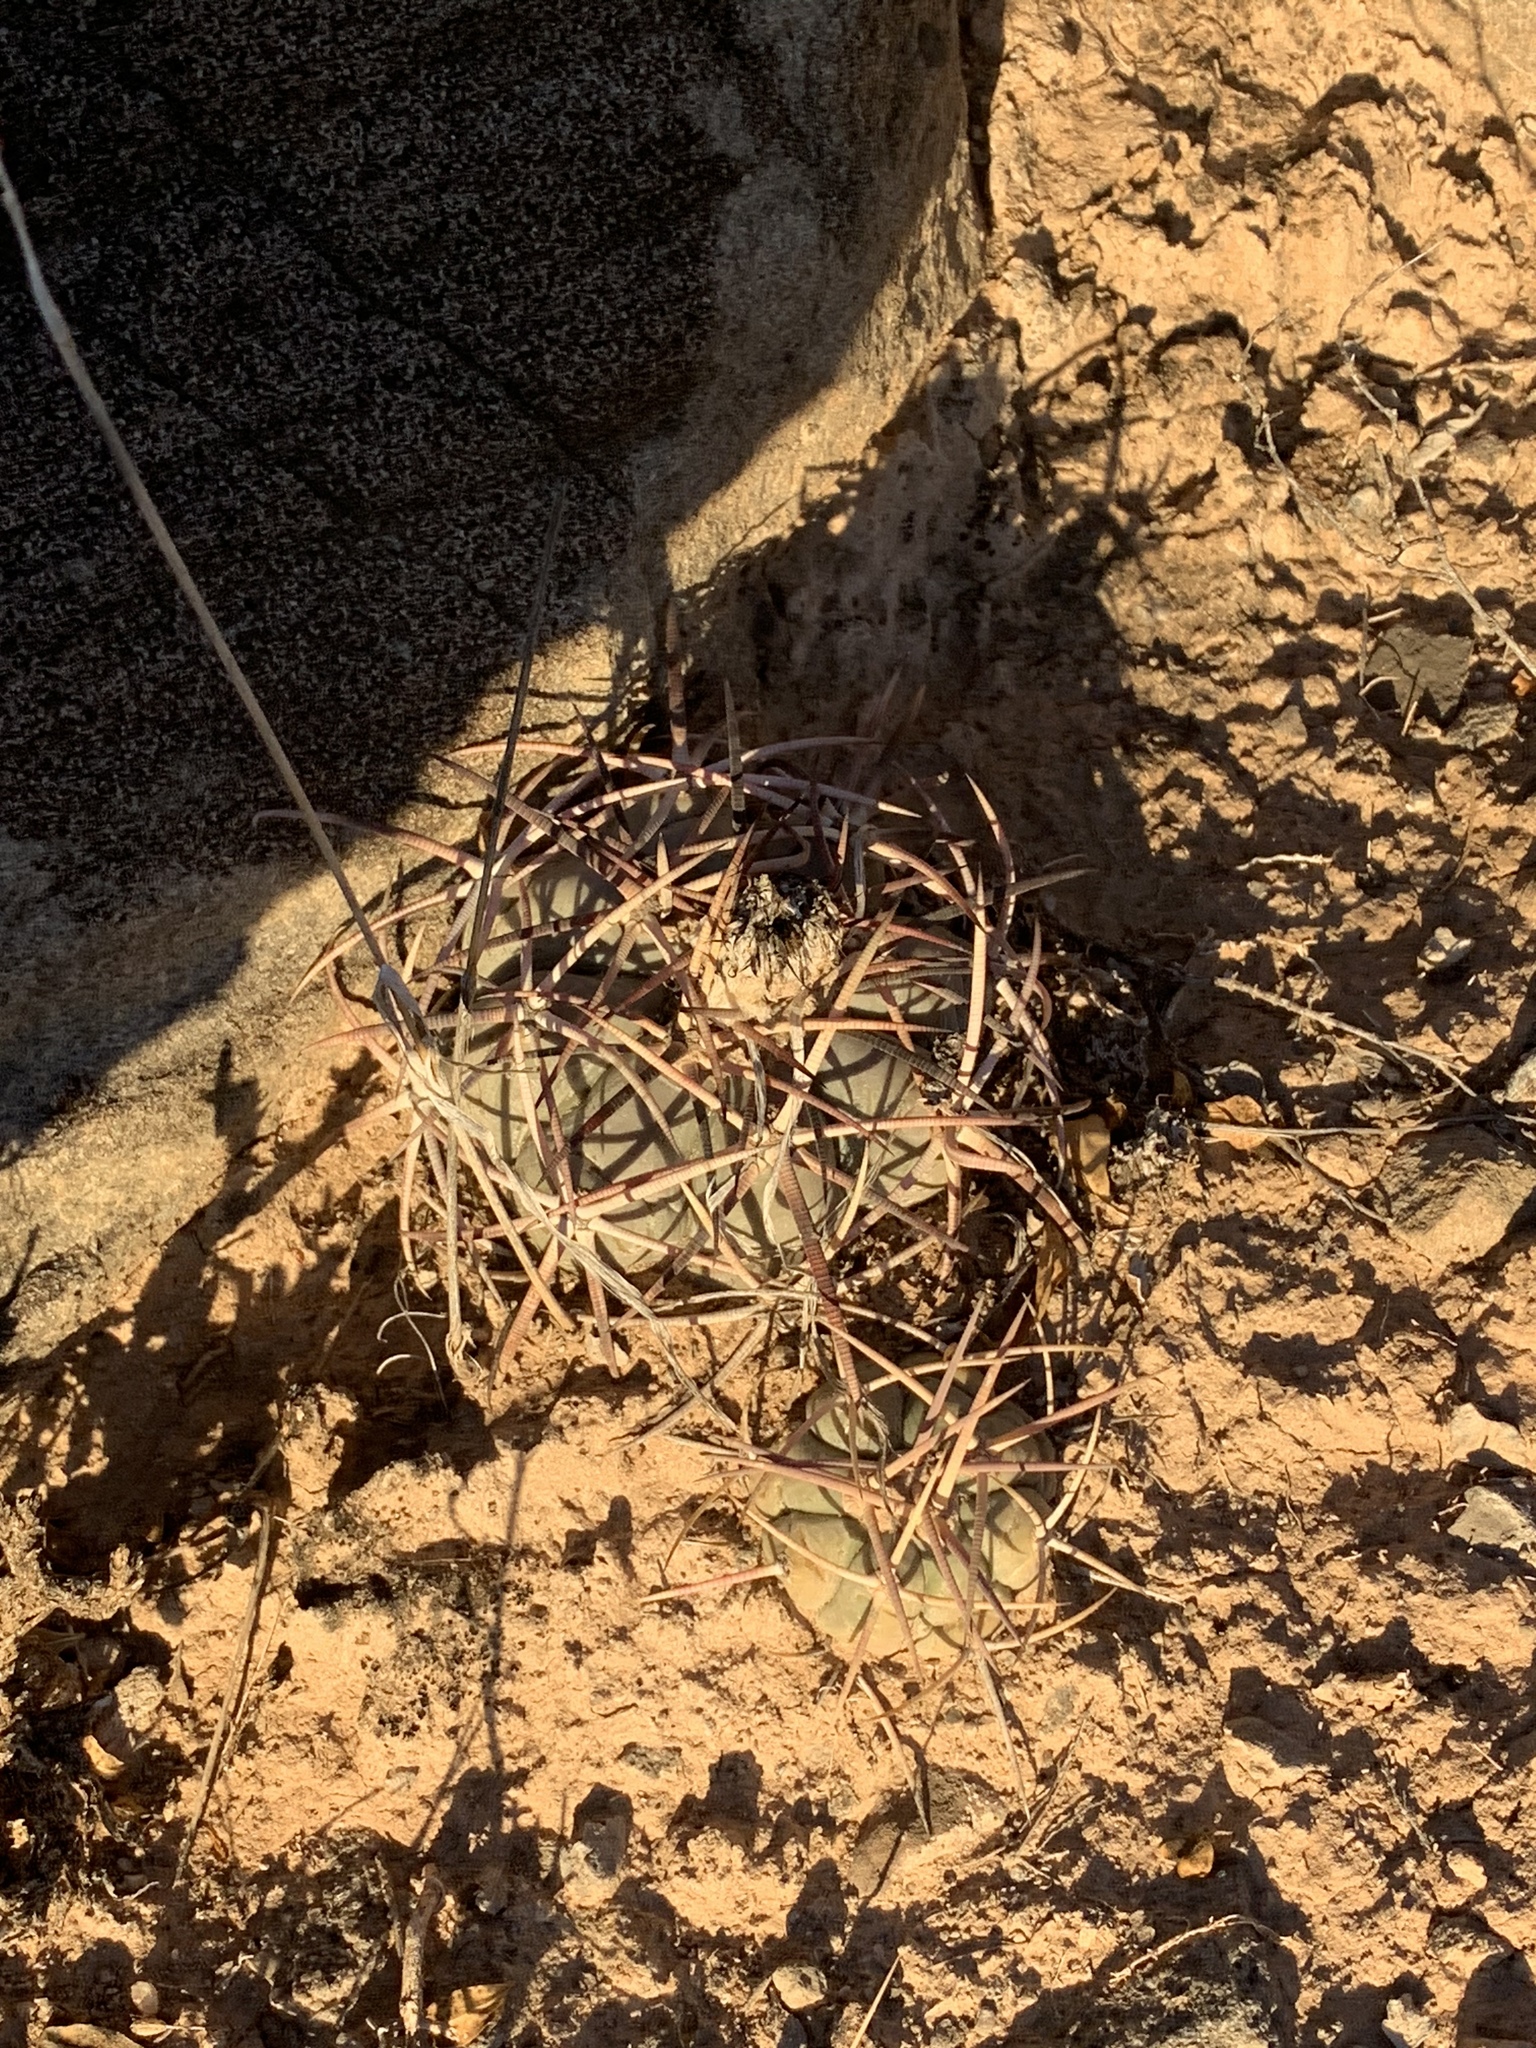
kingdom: Plantae
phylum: Tracheophyta
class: Magnoliopsida
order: Caryophyllales
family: Cactaceae
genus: Echinocactus
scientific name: Echinocactus horizonthalonius
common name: Devilshead
